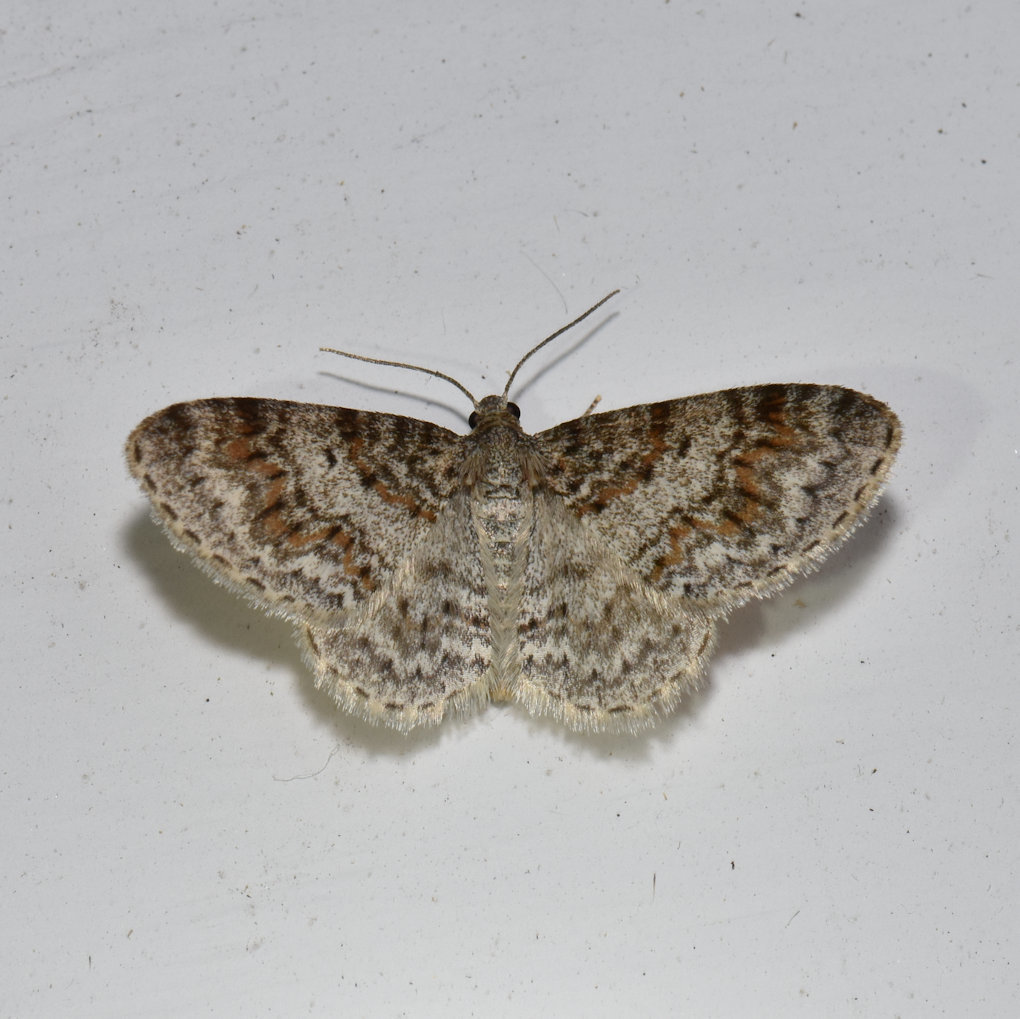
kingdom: Animalia
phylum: Arthropoda
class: Insecta
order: Lepidoptera
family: Geometridae
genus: Hydrelia
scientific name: Hydrelia inornata
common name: Unadorned carpet moth
